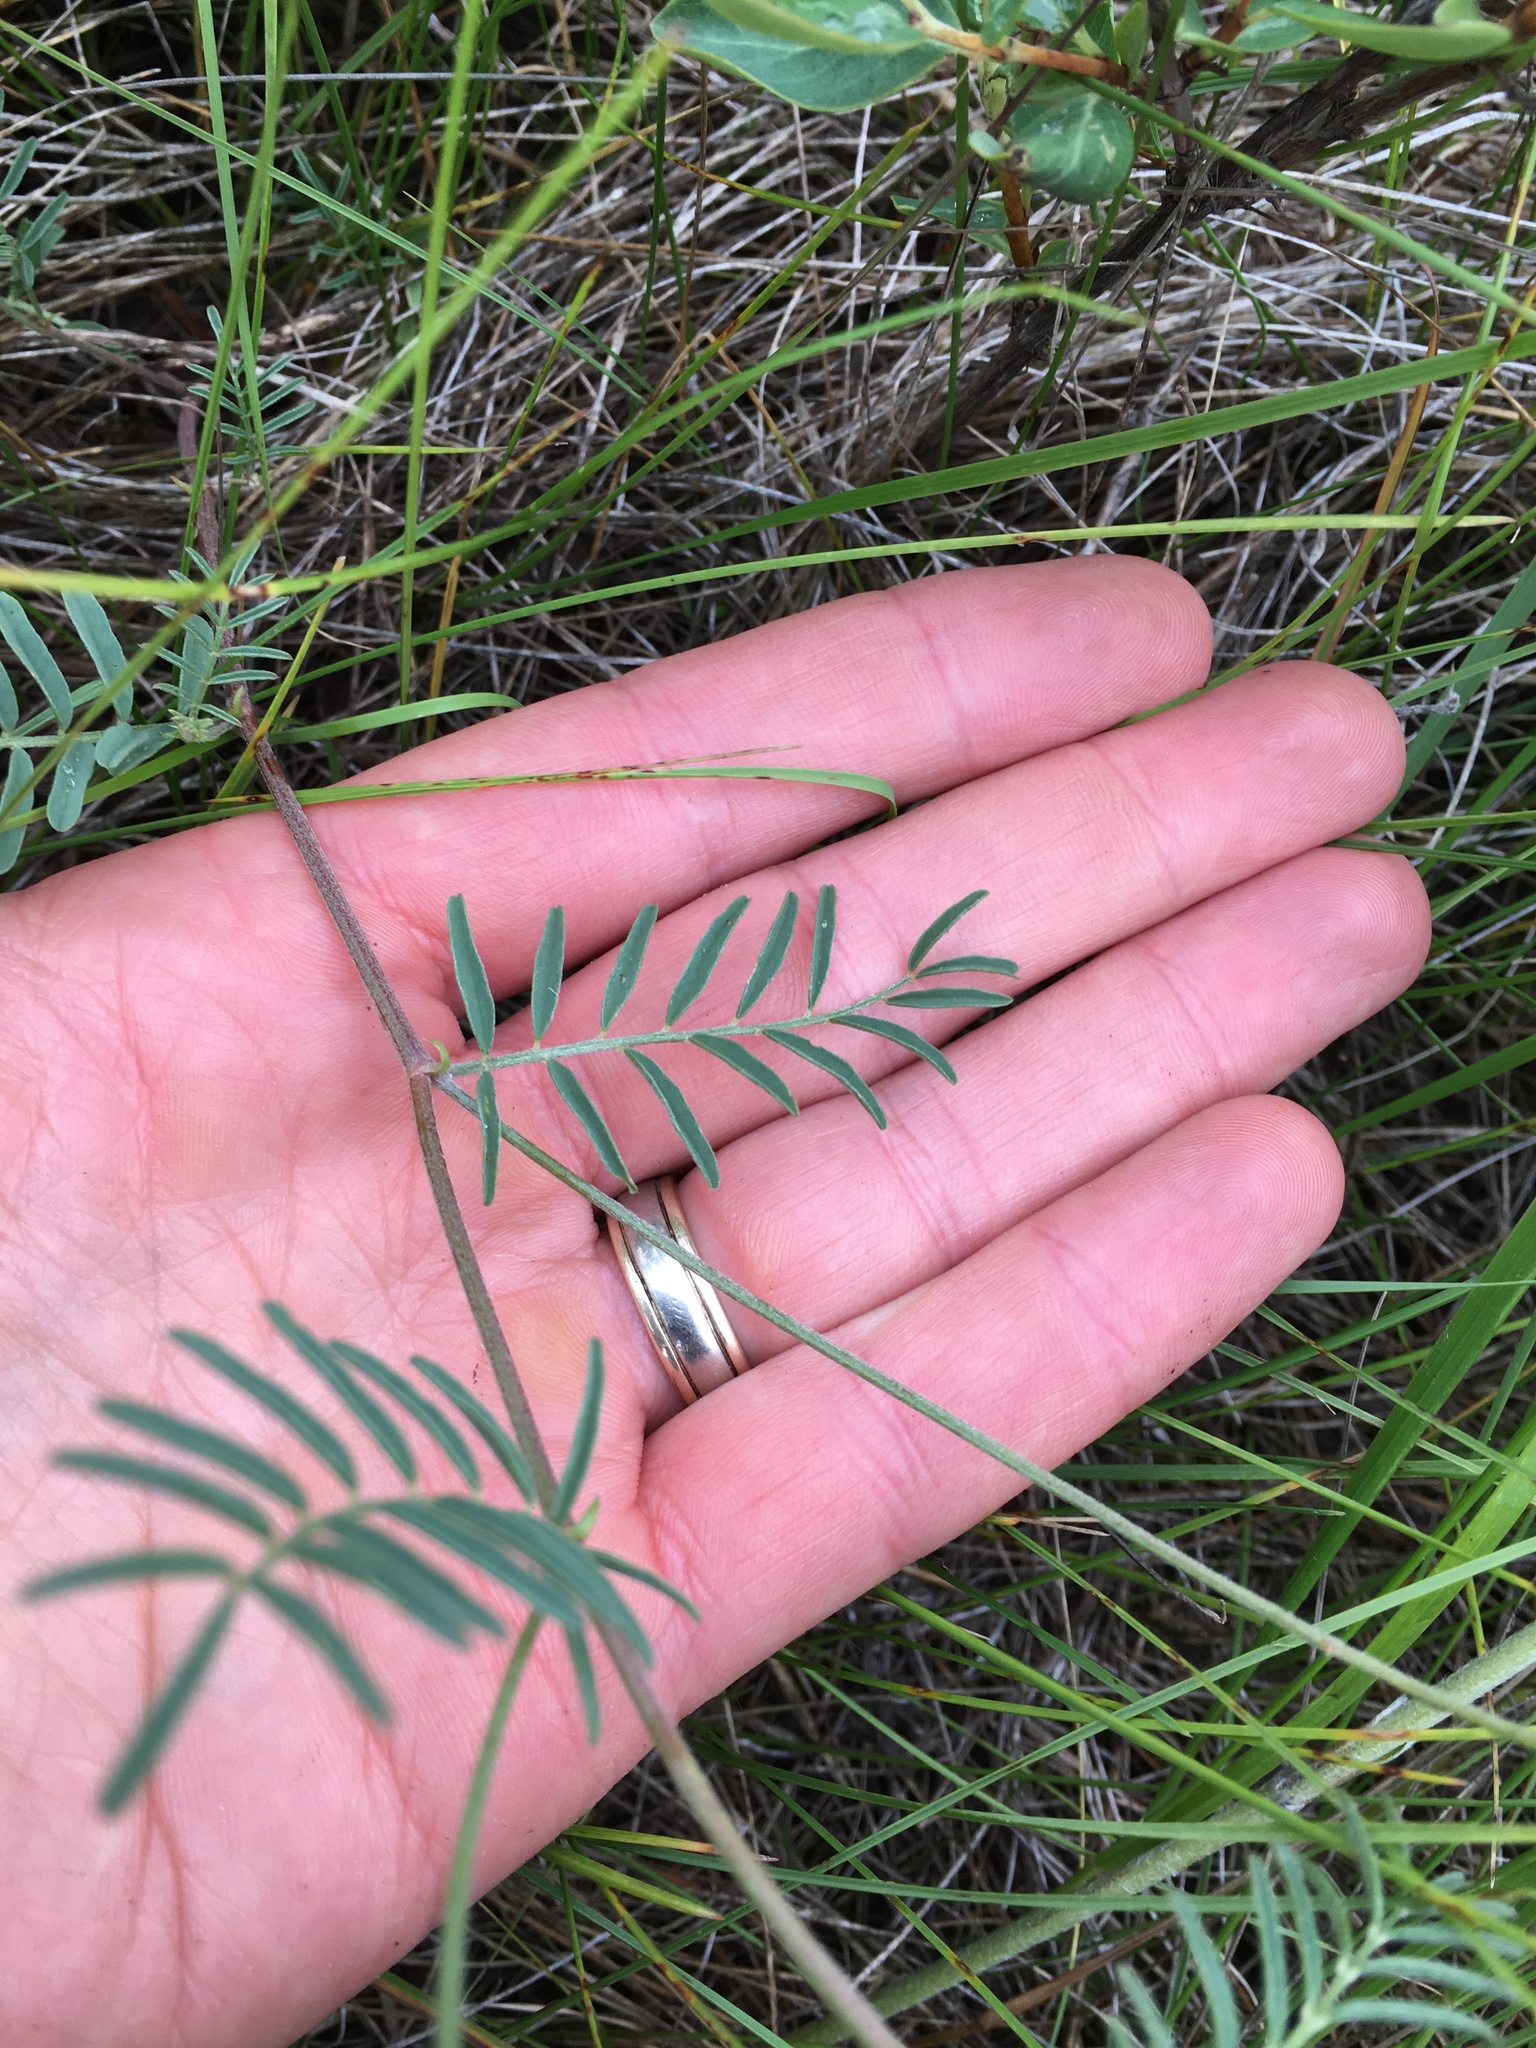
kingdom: Plantae
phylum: Tracheophyta
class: Magnoliopsida
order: Fabales
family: Fabaceae
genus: Astragalus
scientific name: Astragalus flexuosus
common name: Pliant milk-vetch
